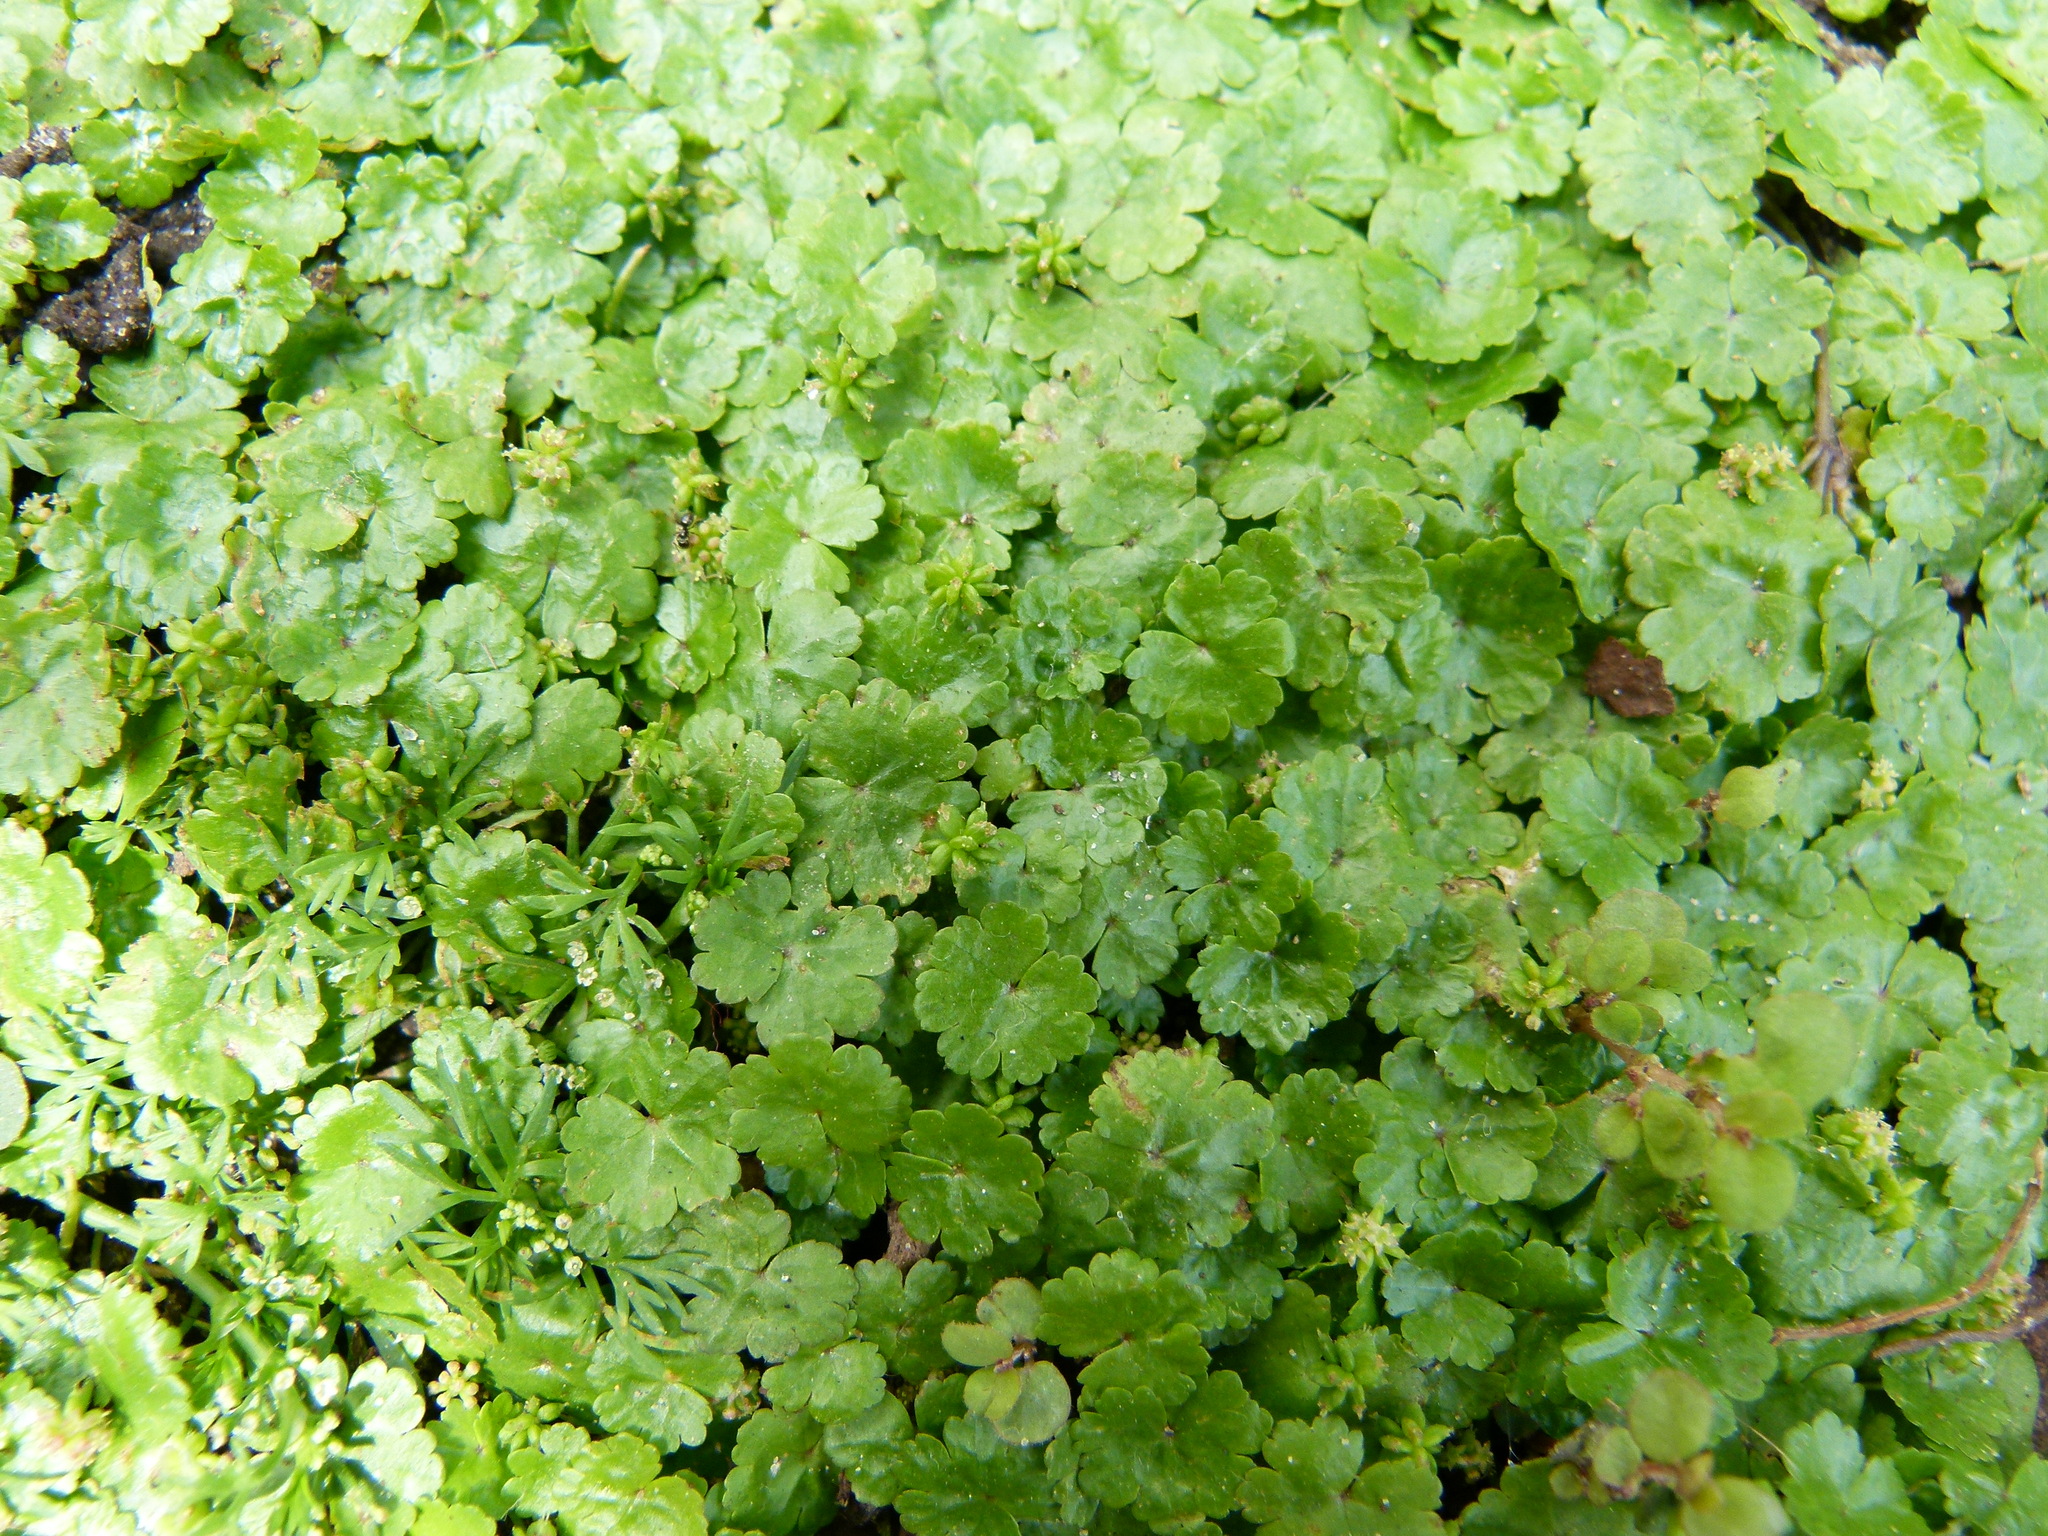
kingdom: Plantae
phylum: Tracheophyta
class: Magnoliopsida
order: Apiales
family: Araliaceae
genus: Hydrocotyle
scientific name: Hydrocotyle sibthorpioides
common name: Lawn marshpennywort
